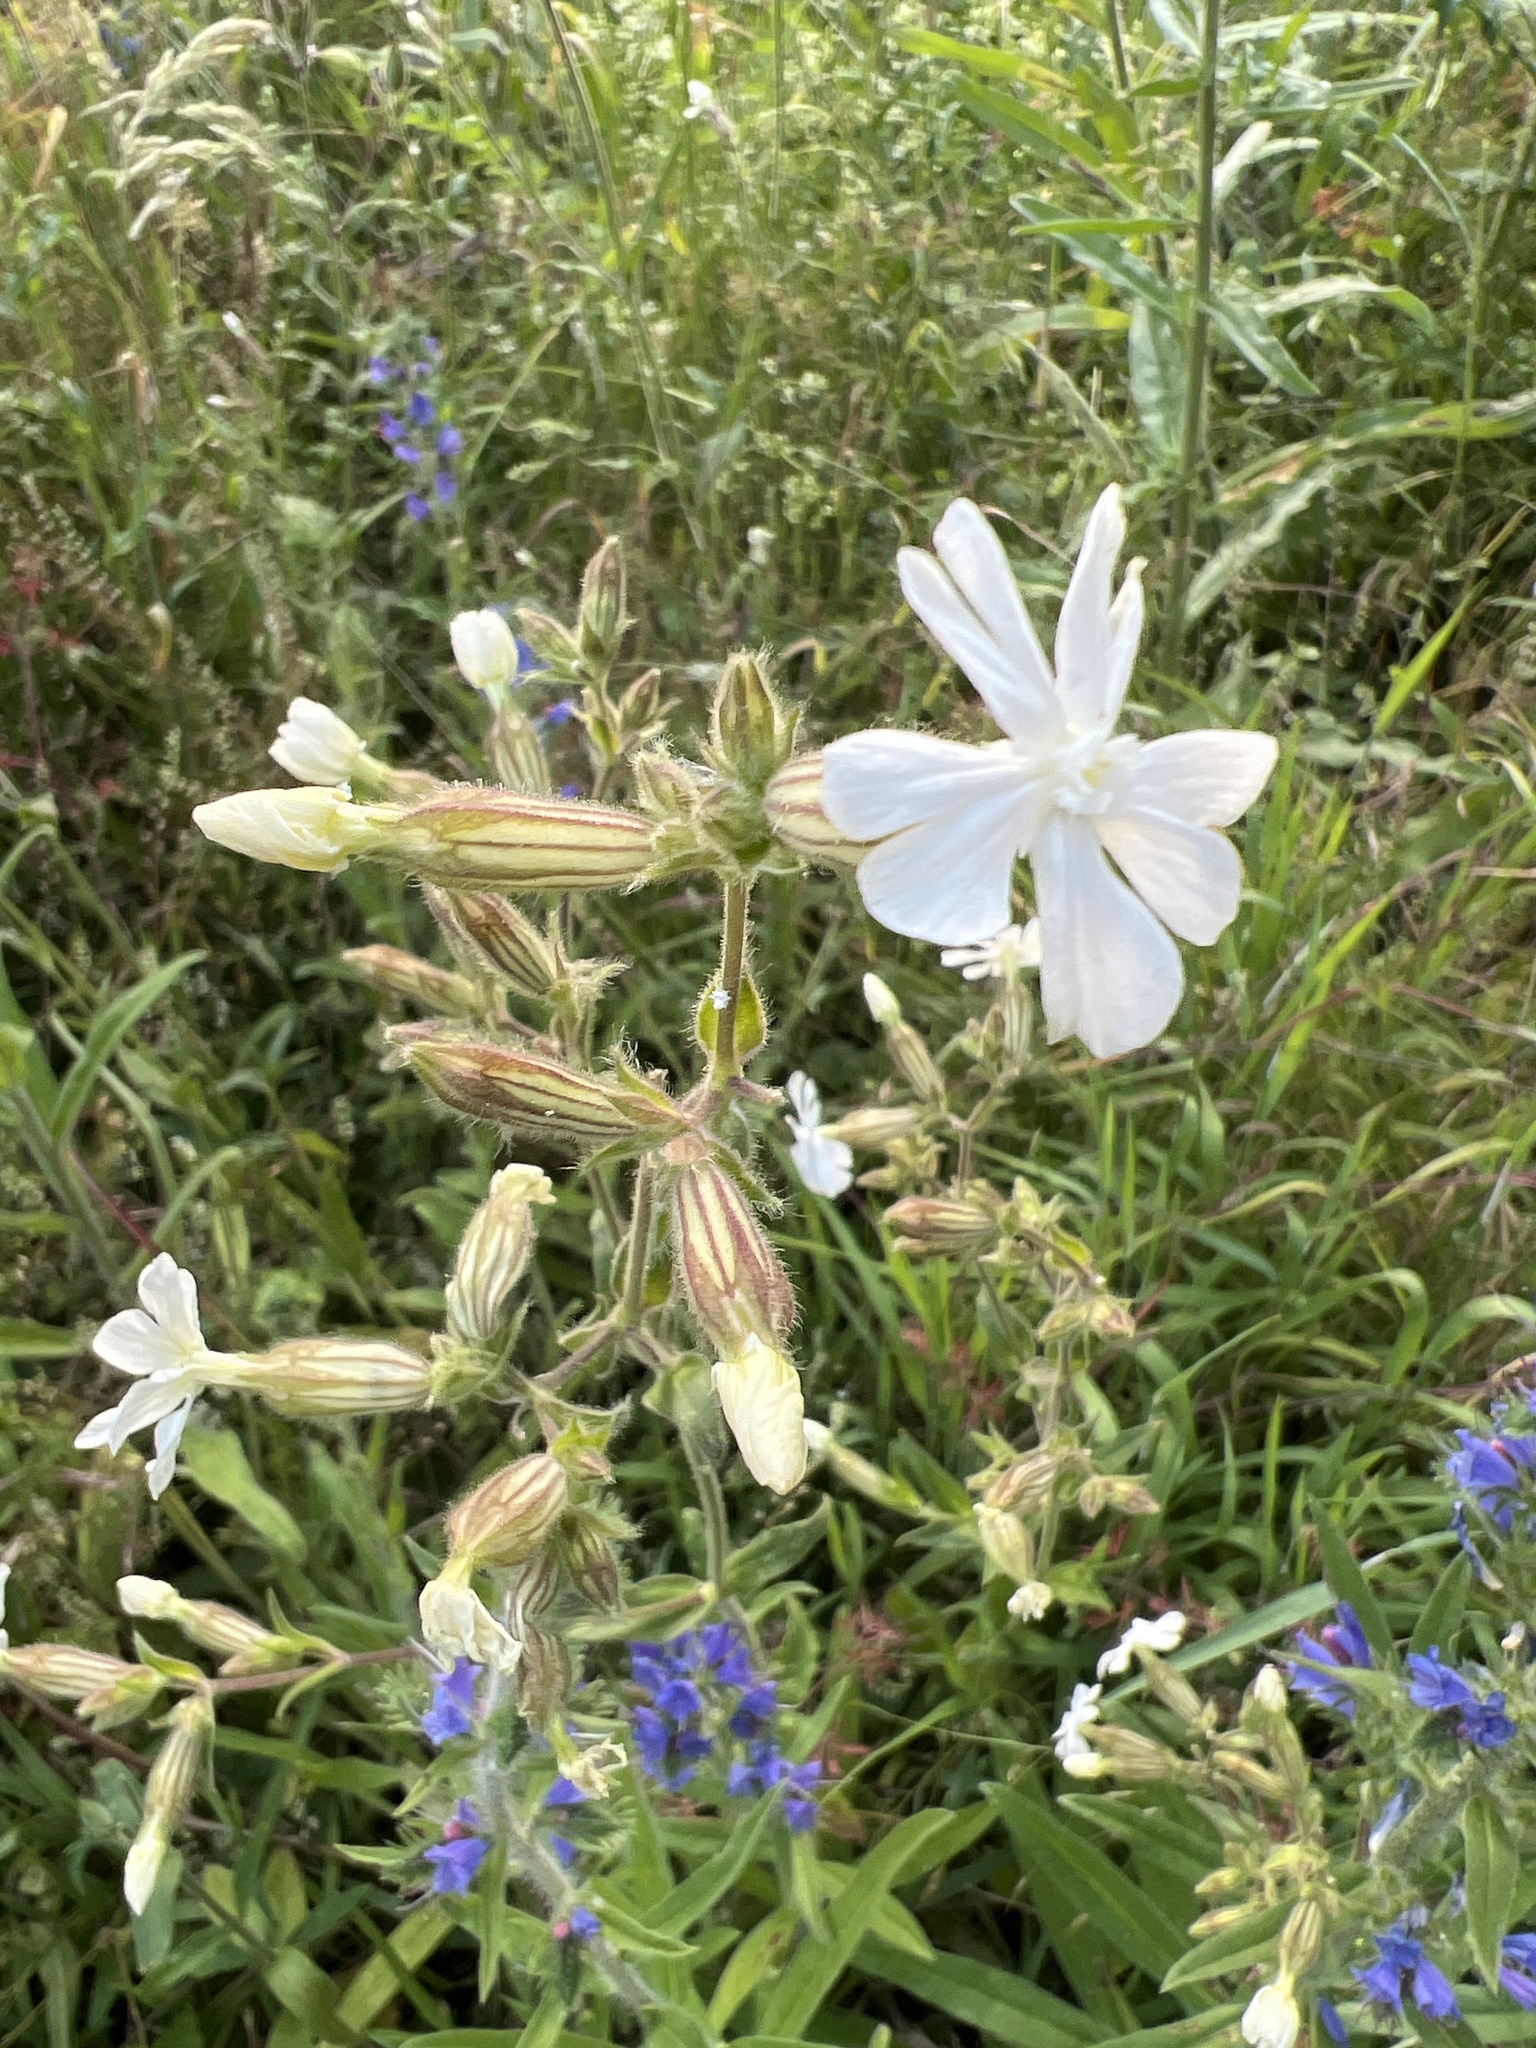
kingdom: Plantae
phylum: Tracheophyta
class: Magnoliopsida
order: Caryophyllales
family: Caryophyllaceae
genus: Silene
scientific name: Silene latifolia
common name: White campion
